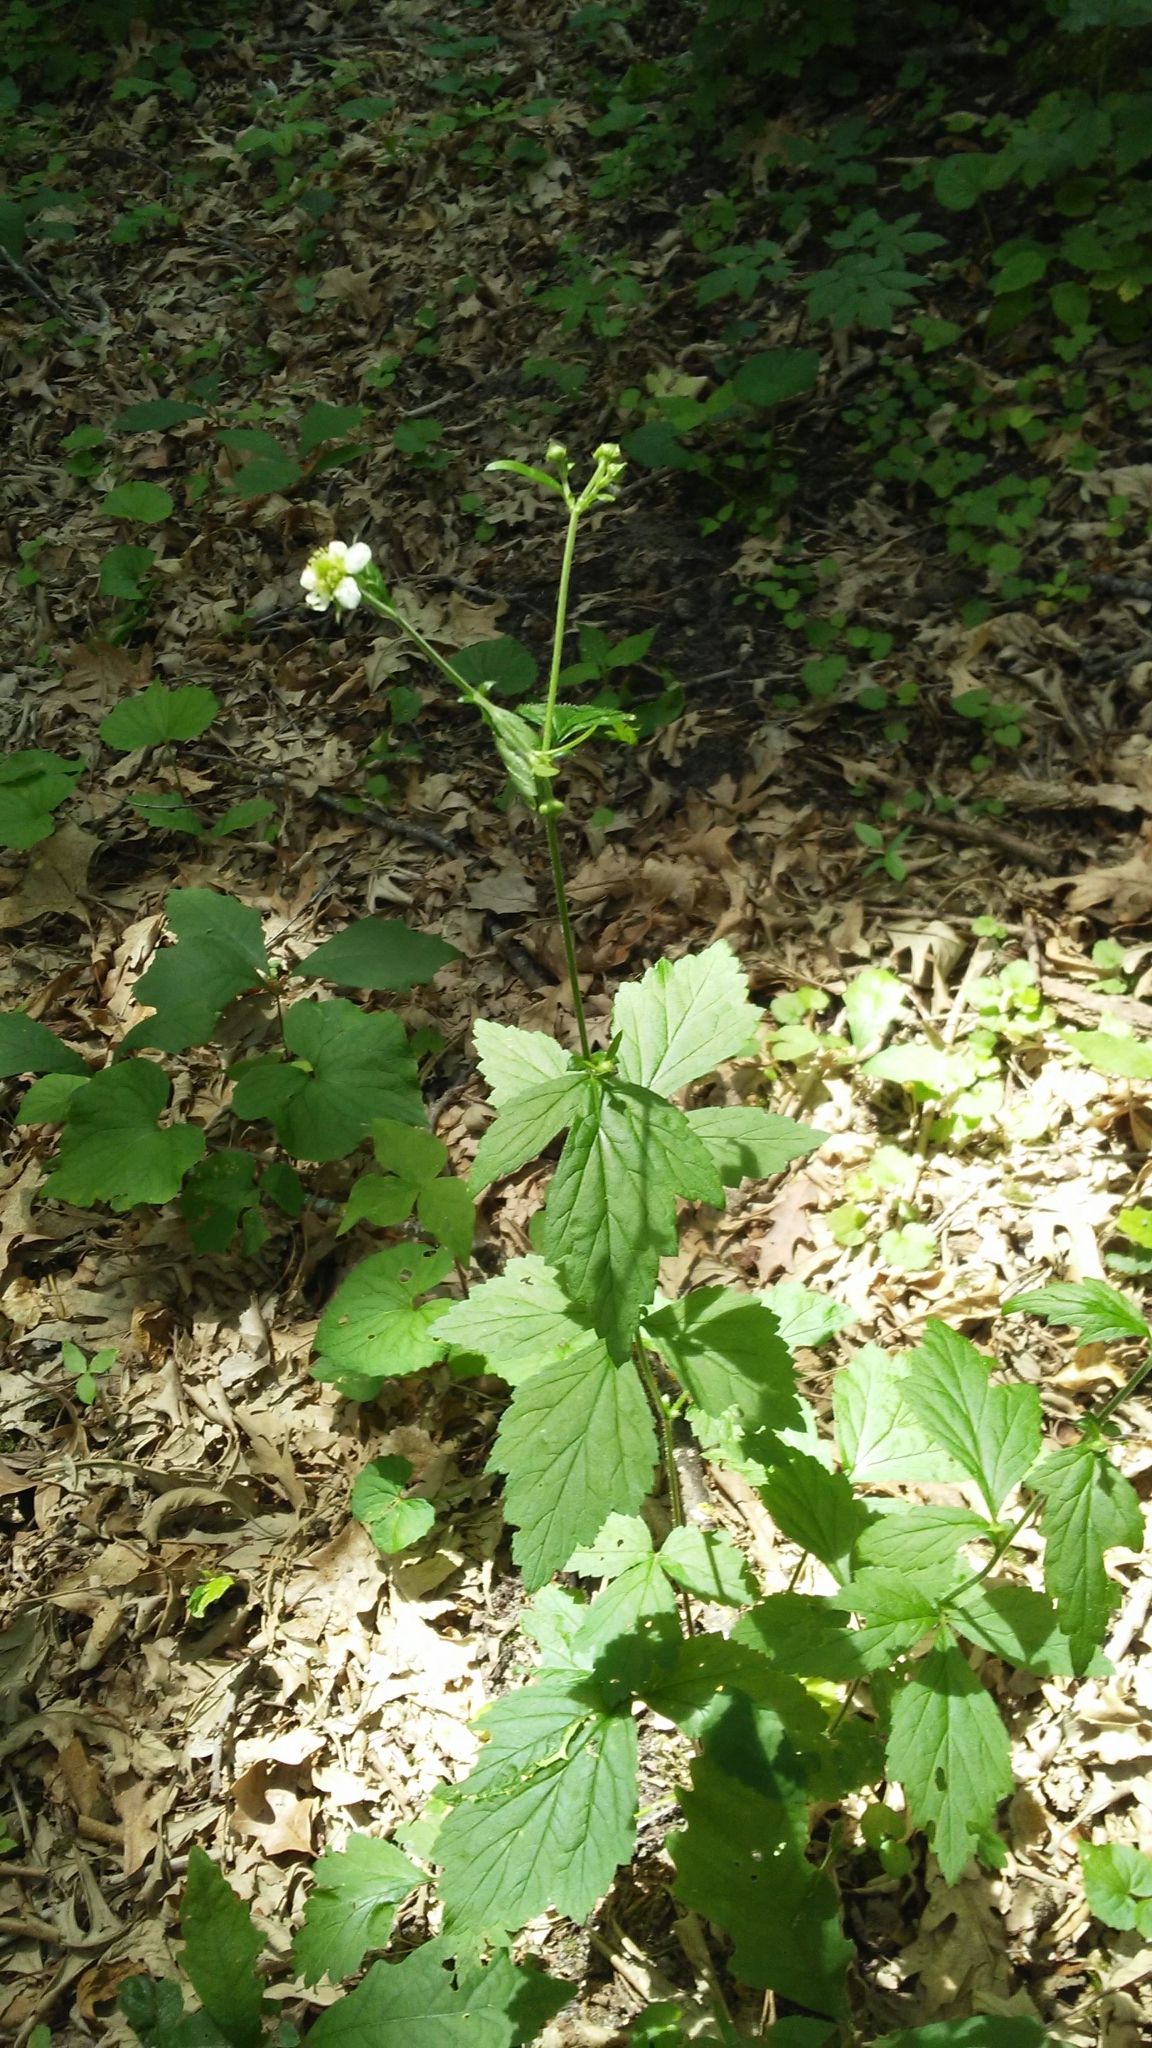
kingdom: Plantae
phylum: Tracheophyta
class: Magnoliopsida
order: Rosales
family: Rosaceae
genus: Geum
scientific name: Geum canadense
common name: White avens
